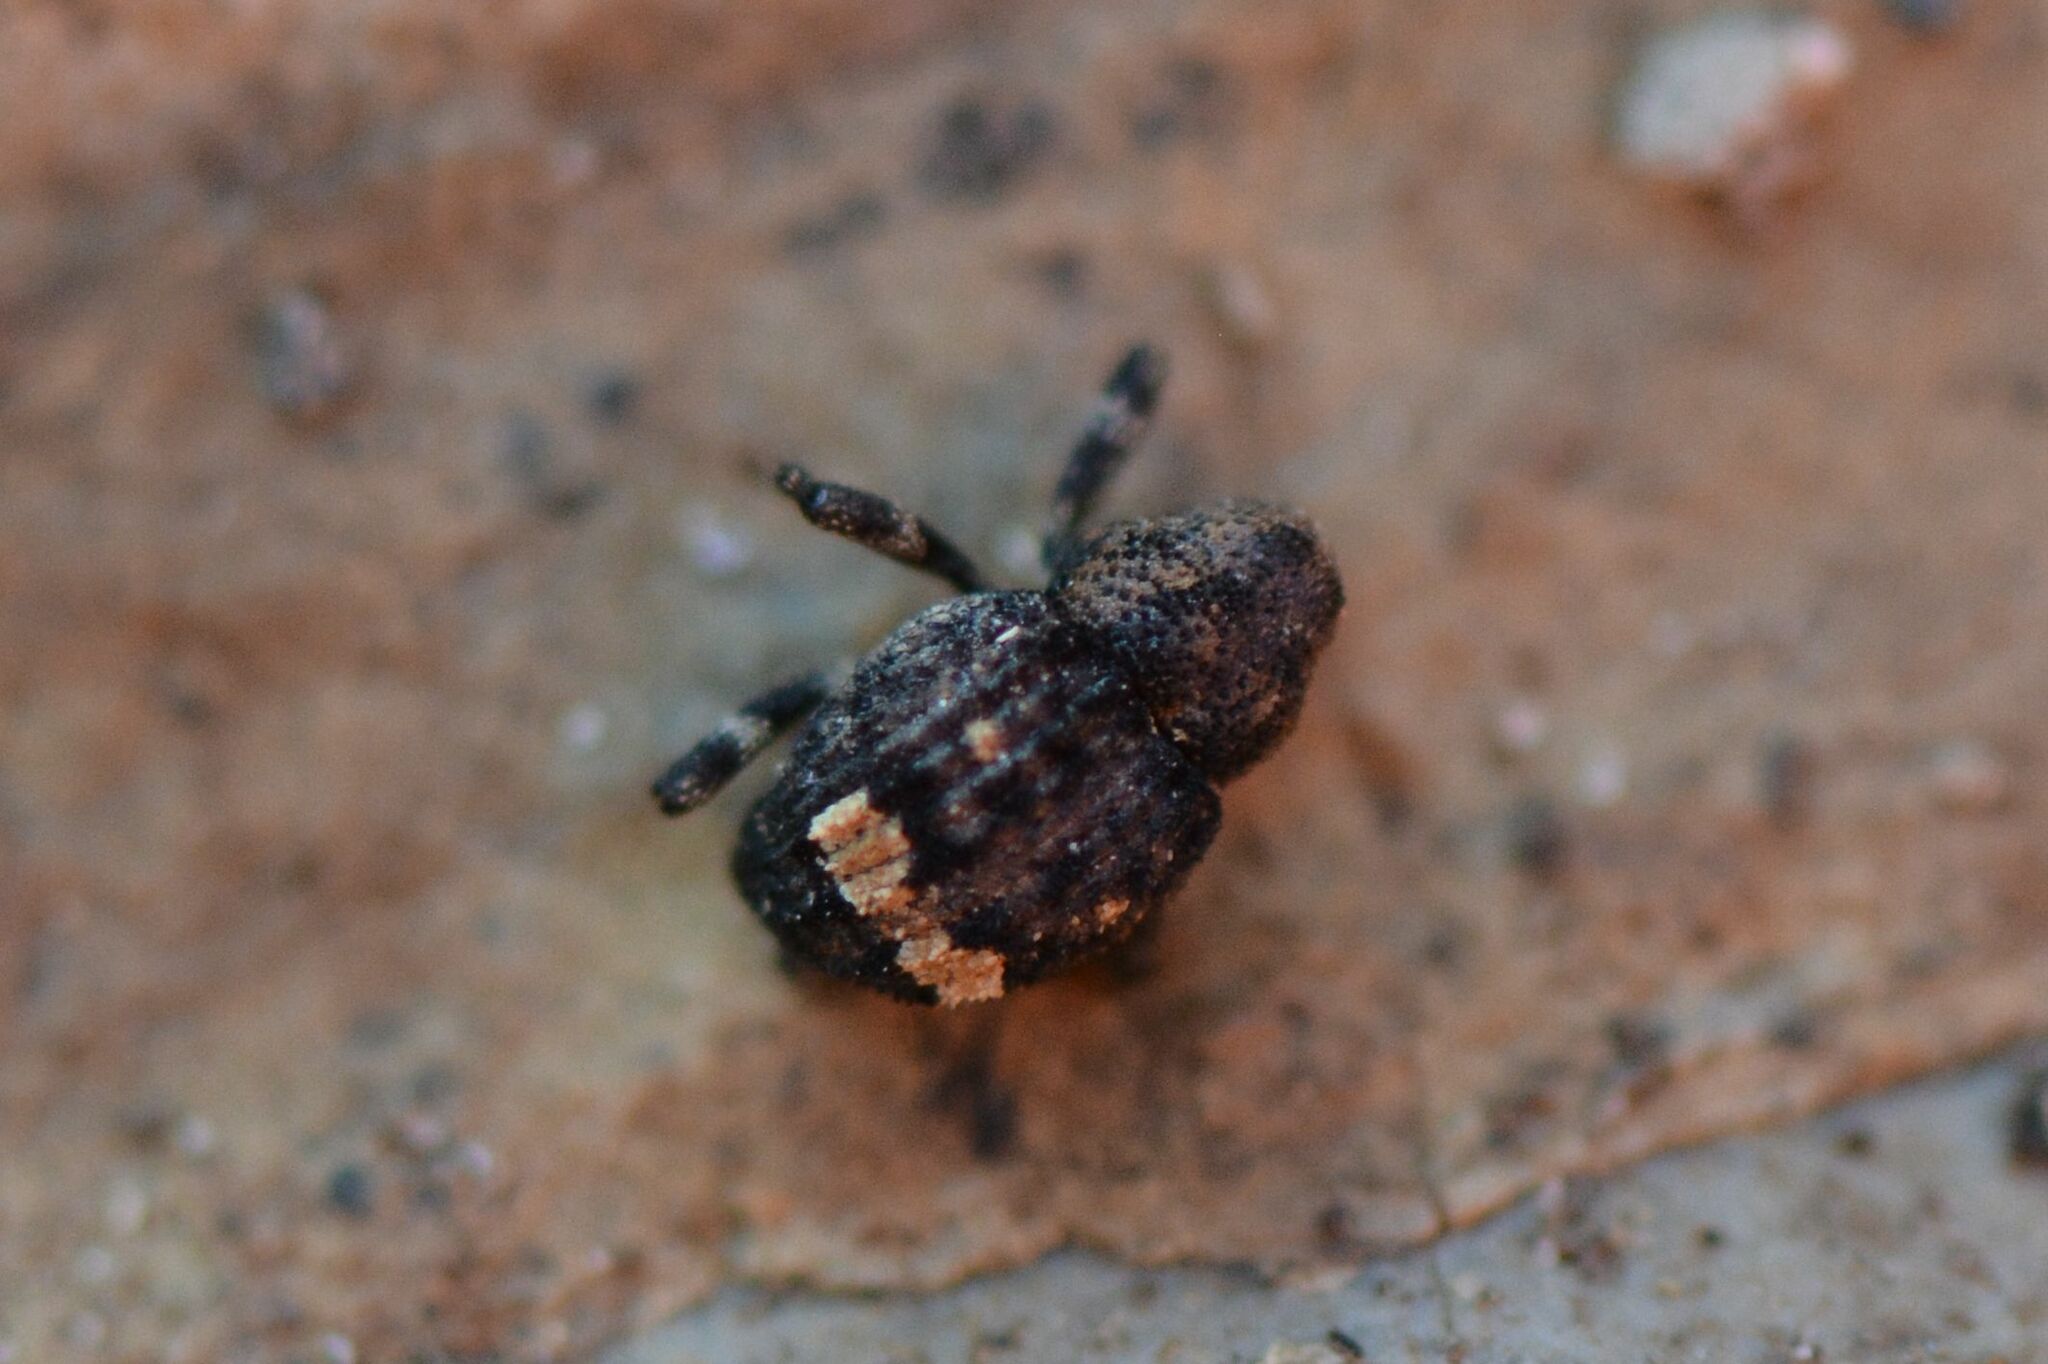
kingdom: Animalia
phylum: Arthropoda
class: Insecta
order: Coleoptera
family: Curculionidae
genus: Echinodera
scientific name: Echinodera hypocrita
